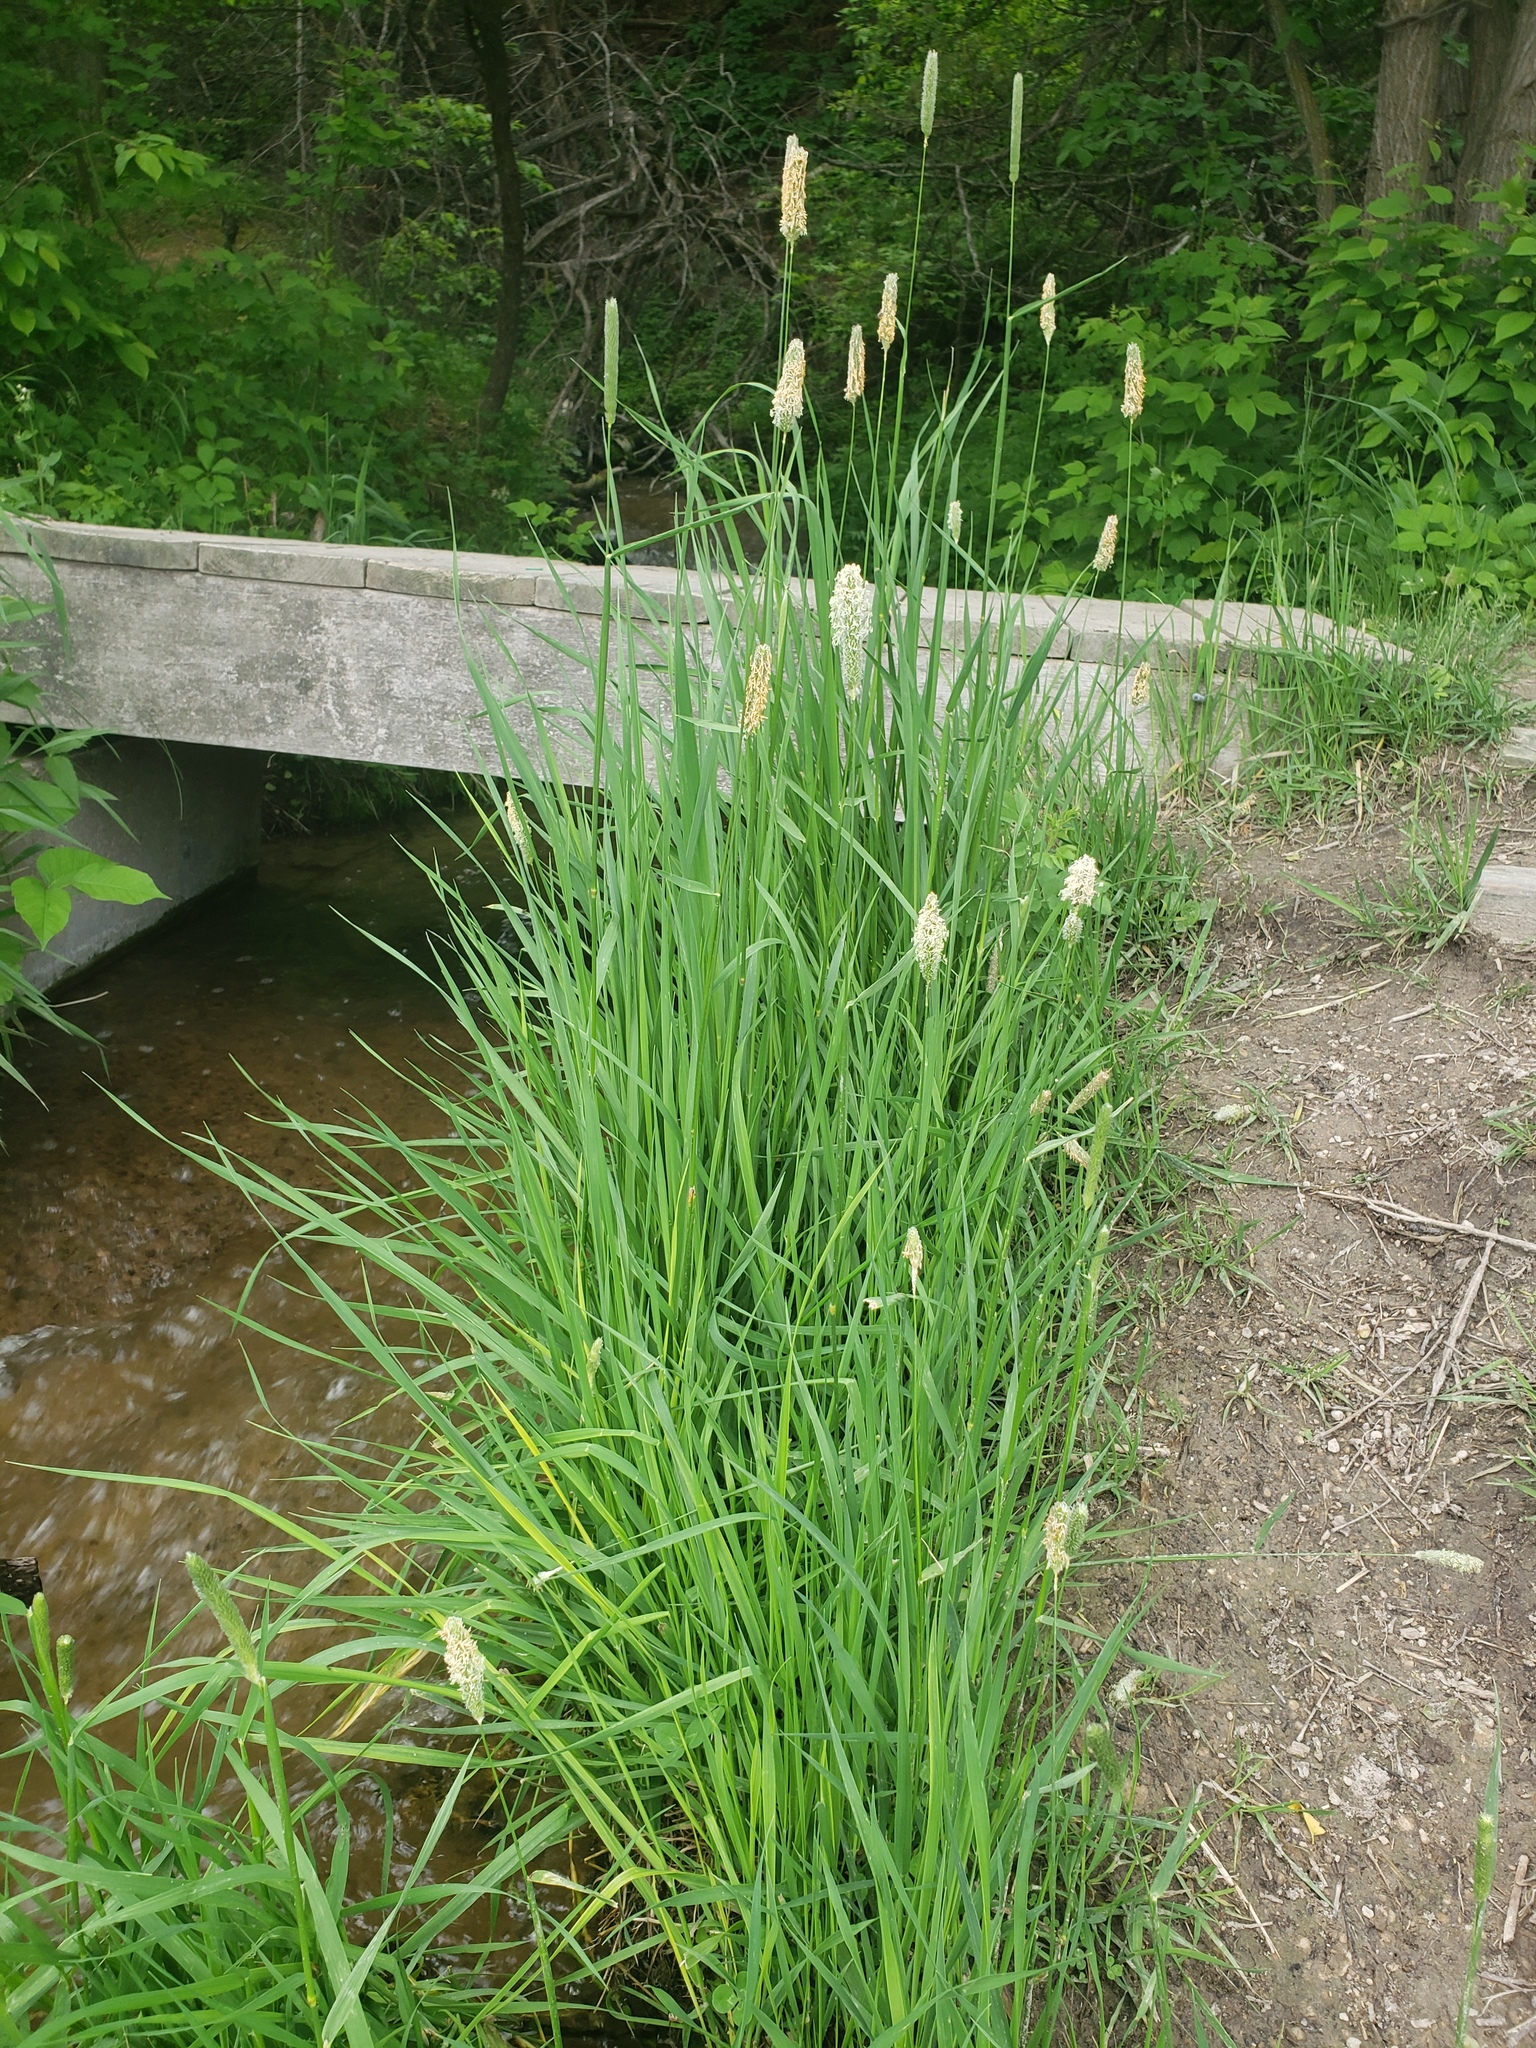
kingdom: Plantae
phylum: Tracheophyta
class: Liliopsida
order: Poales
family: Poaceae
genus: Phleum
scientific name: Phleum pratense
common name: Timothy grass
